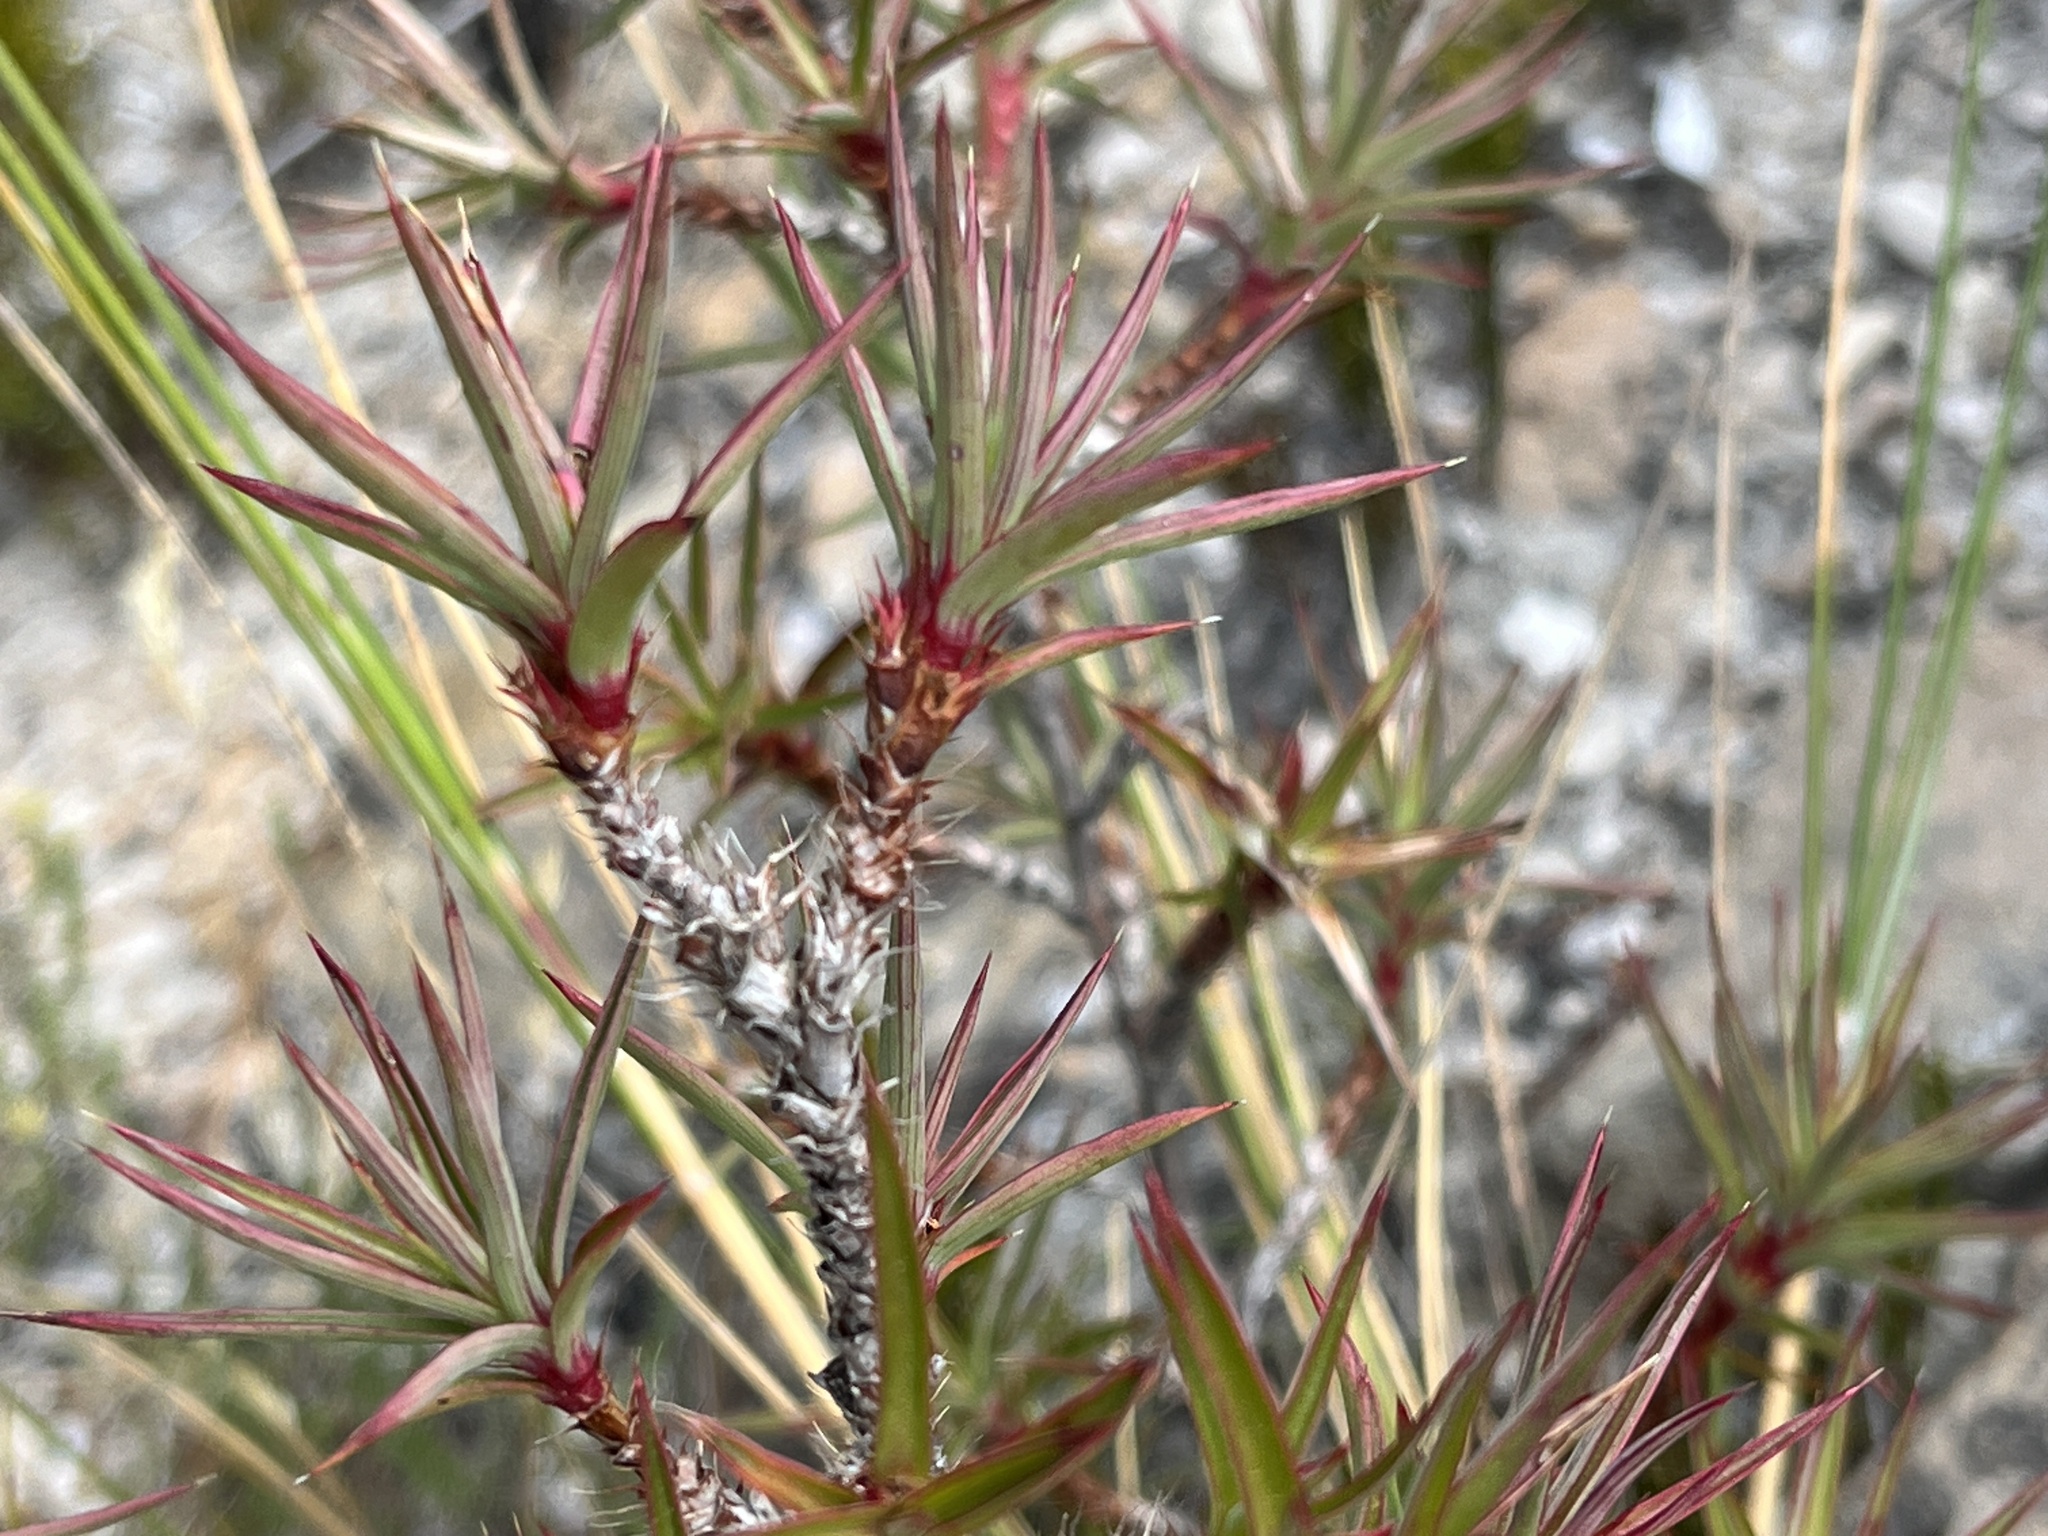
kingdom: Plantae
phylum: Tracheophyta
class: Magnoliopsida
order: Rosales
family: Rosaceae
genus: Cliffortia
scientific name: Cliffortia dregeana
